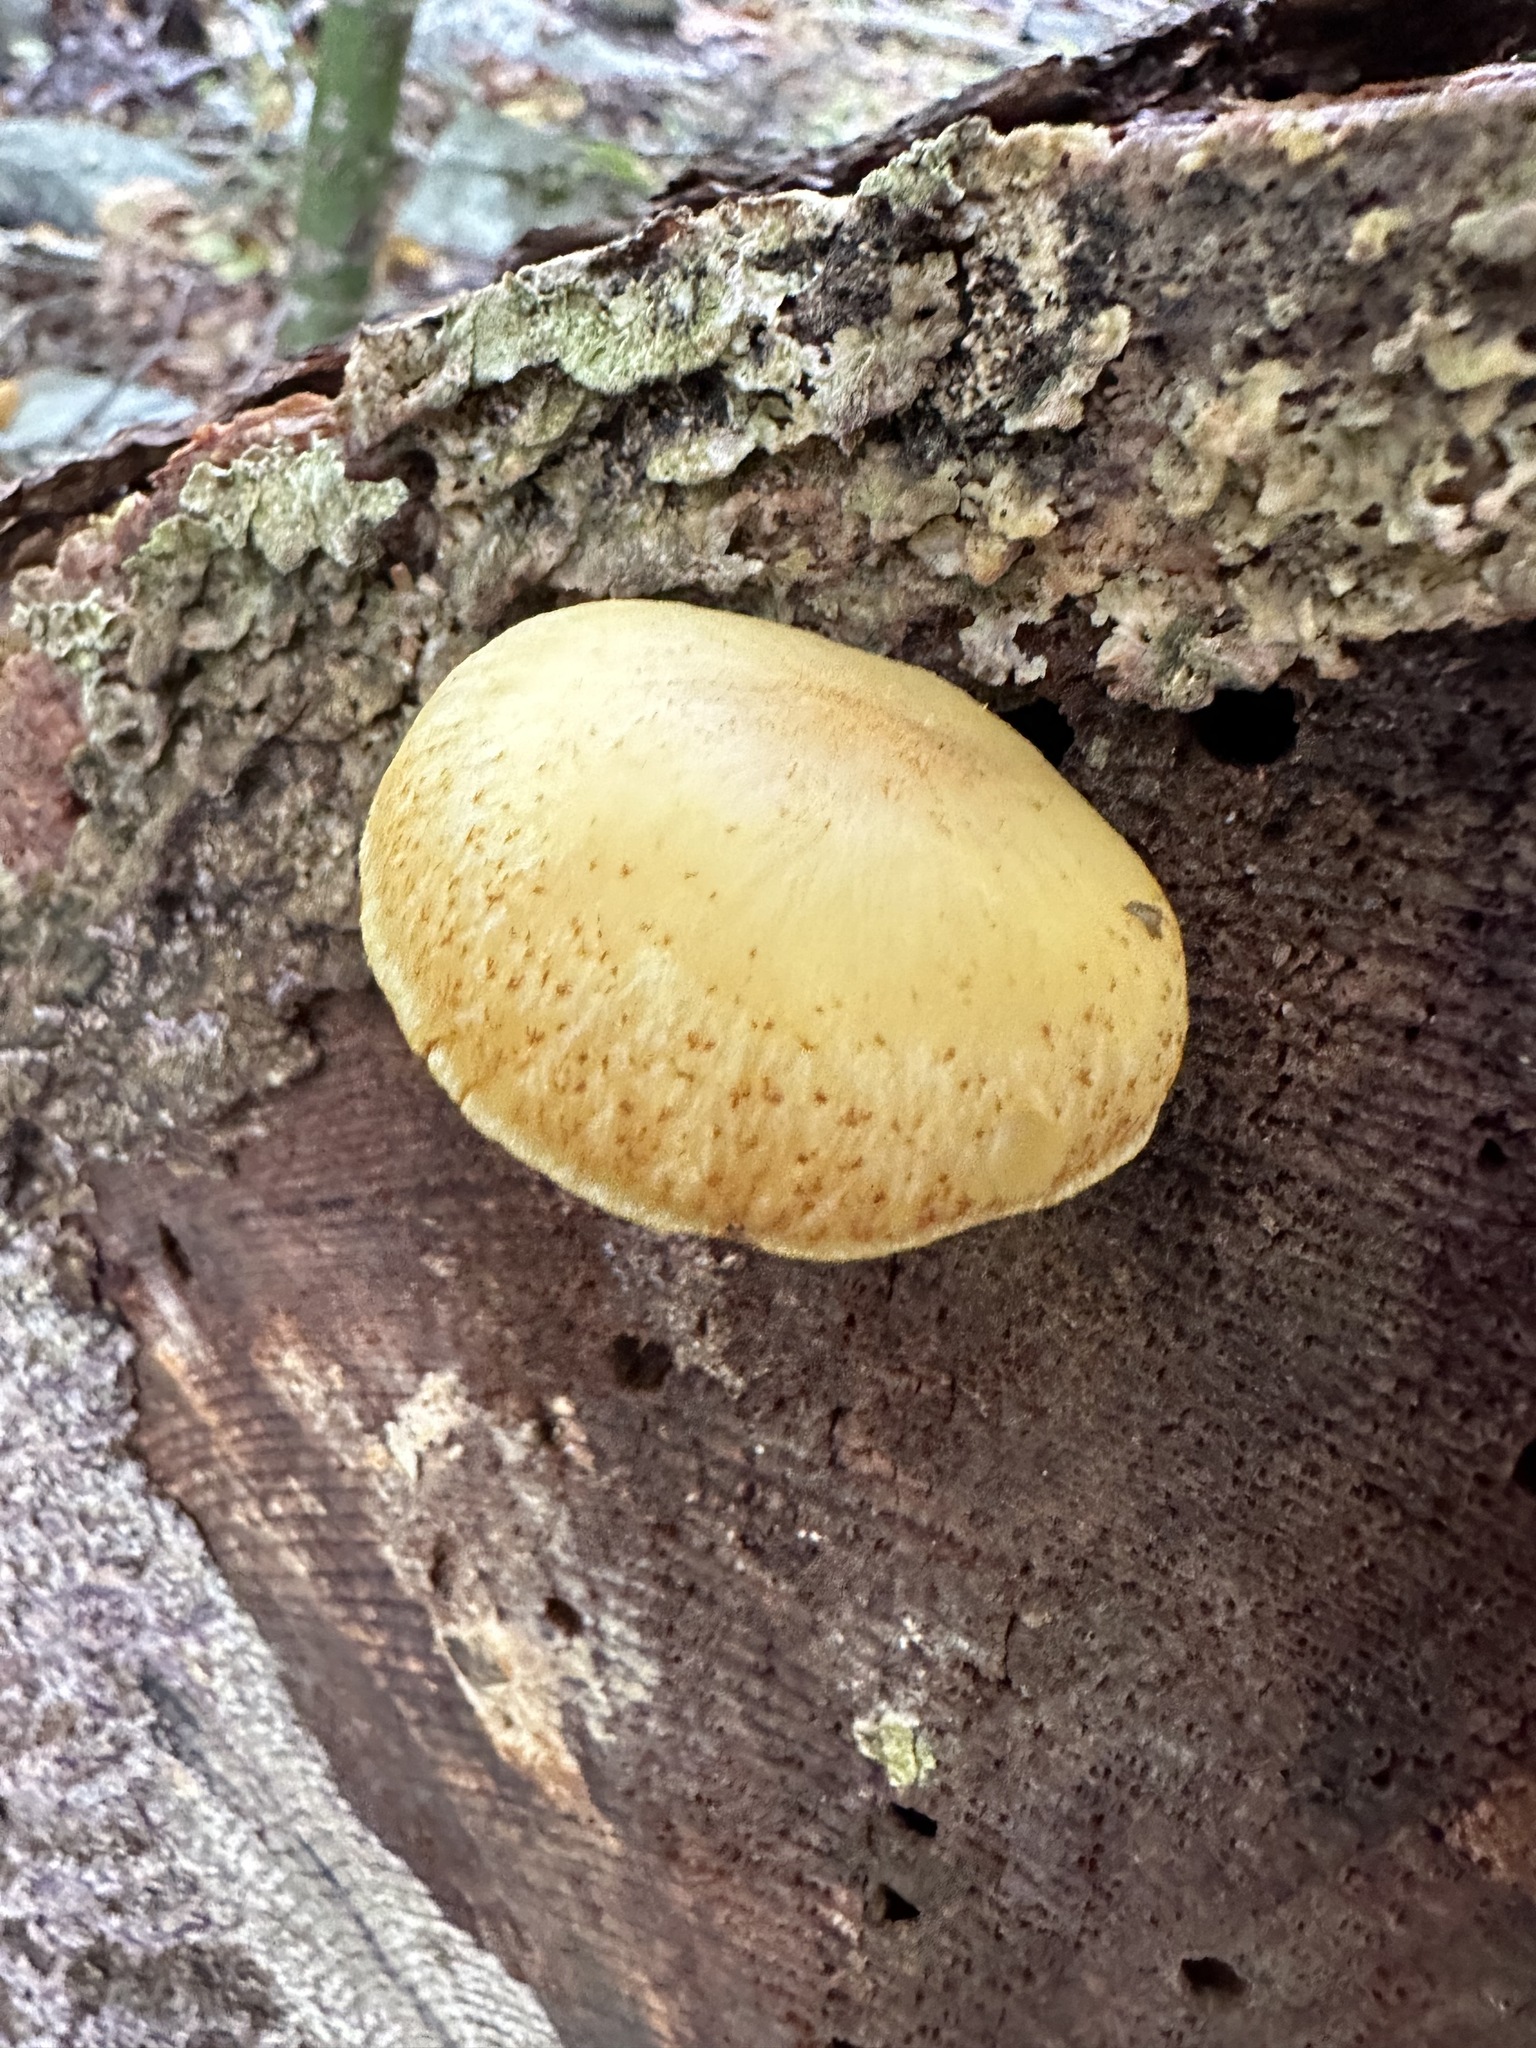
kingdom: Fungi
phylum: Basidiomycota
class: Agaricomycetes
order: Agaricales
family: Tricholomataceae
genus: Tricholomopsis
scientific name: Tricholomopsis sulfureoides
